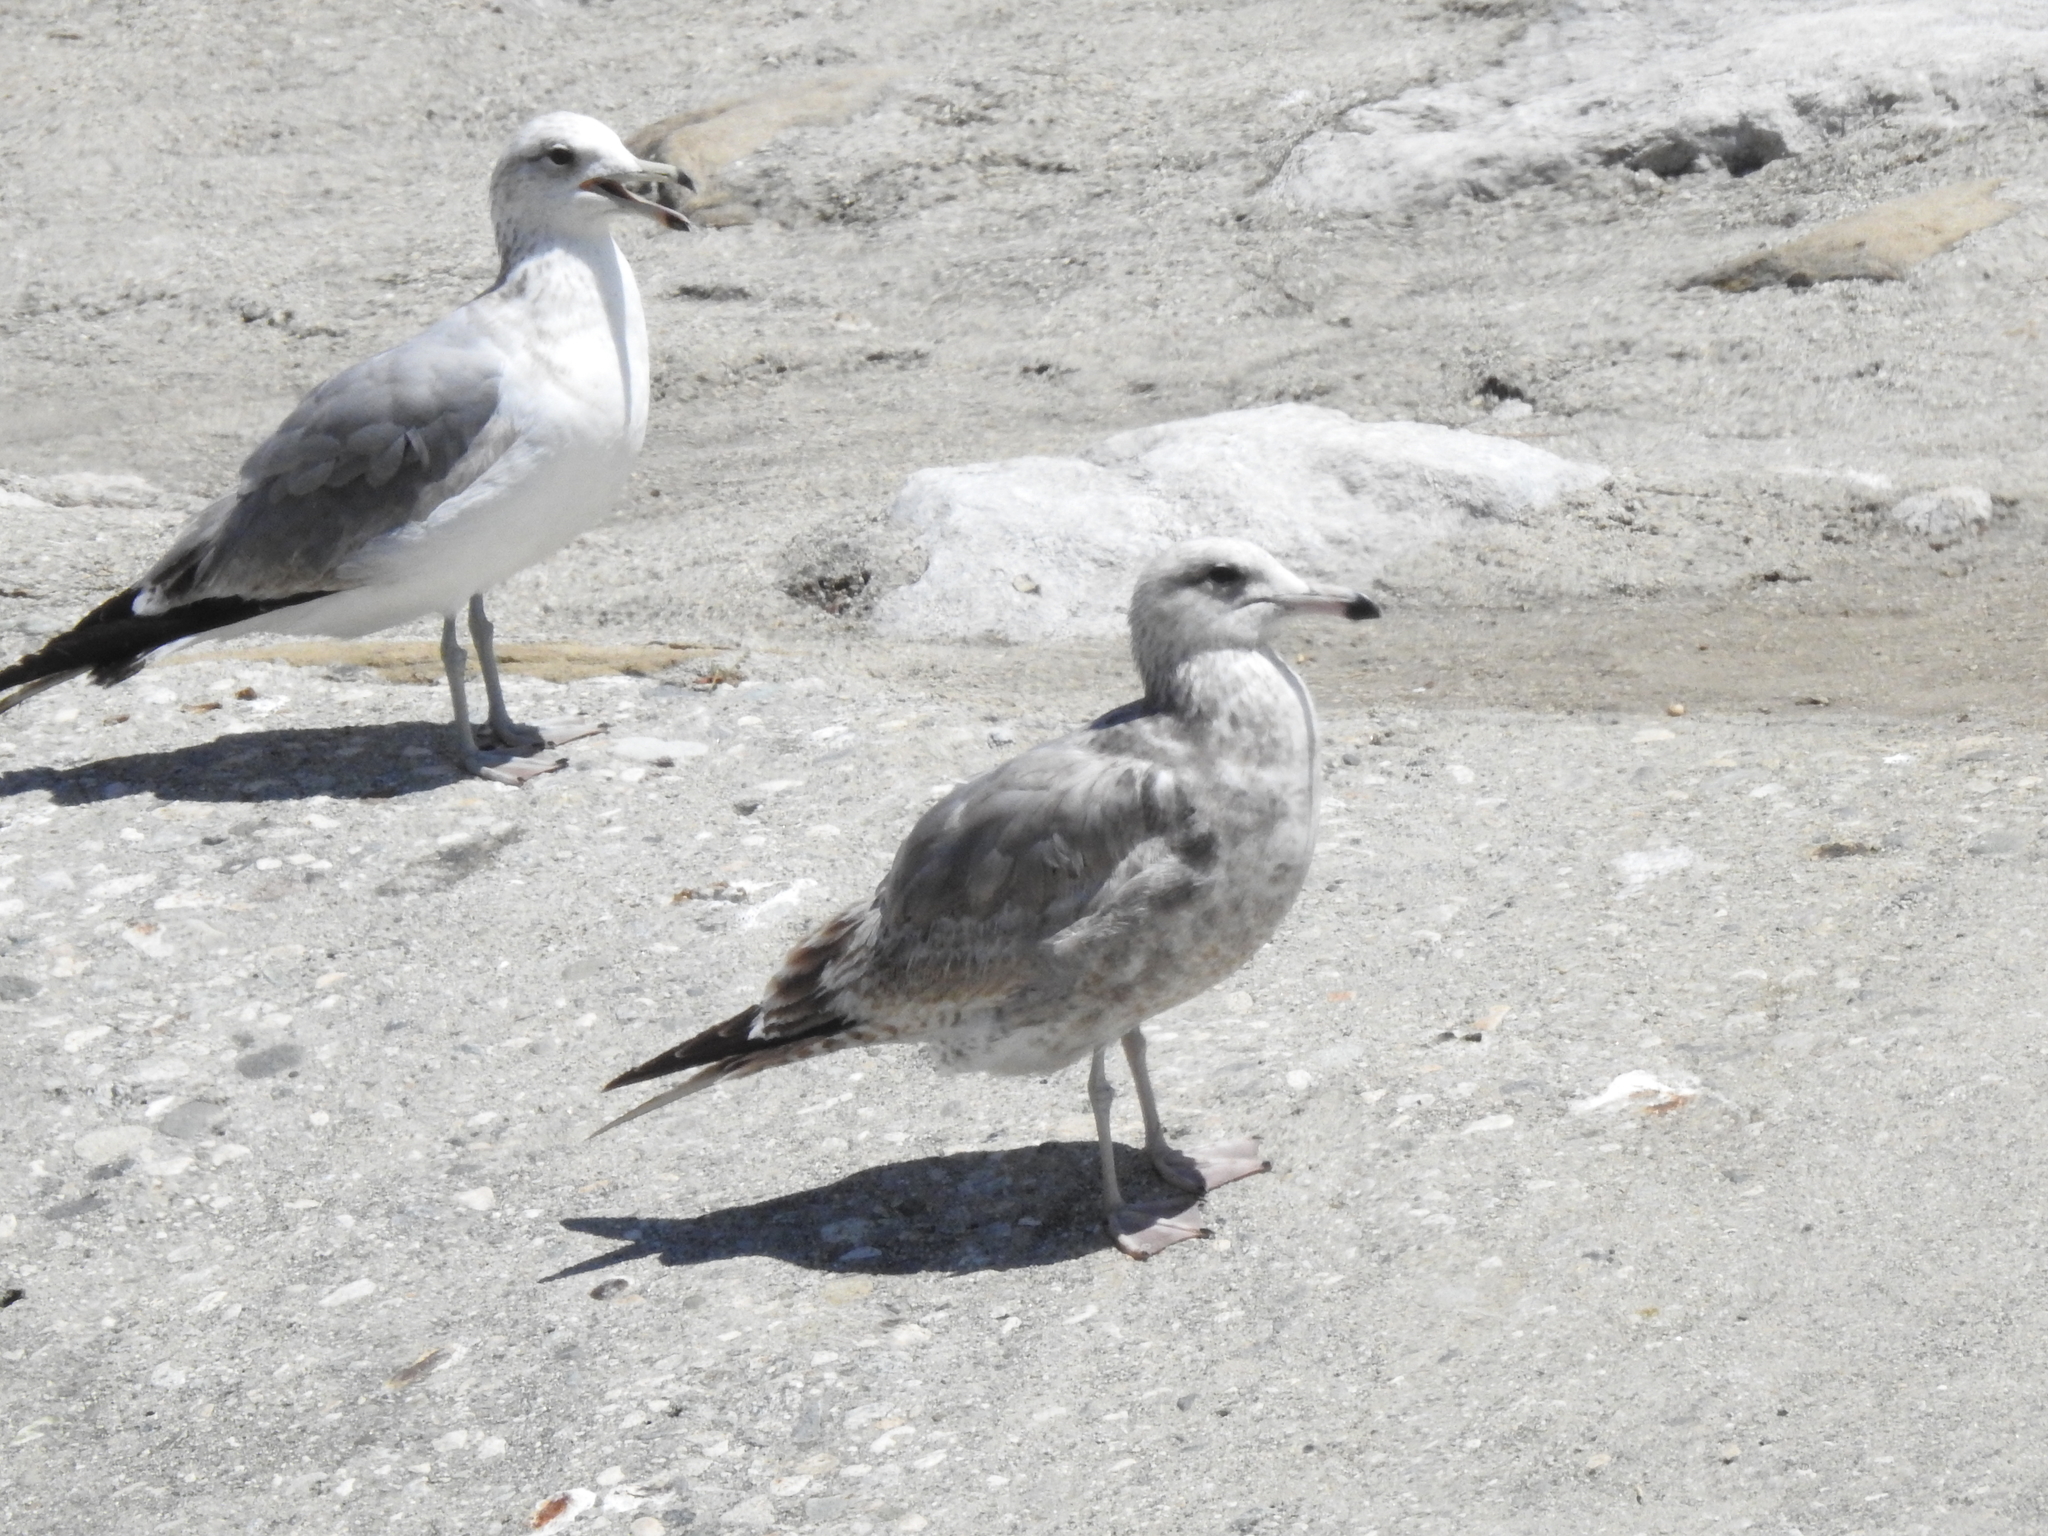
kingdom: Animalia
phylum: Chordata
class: Aves
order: Charadriiformes
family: Laridae
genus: Larus
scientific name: Larus californicus
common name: California gull
